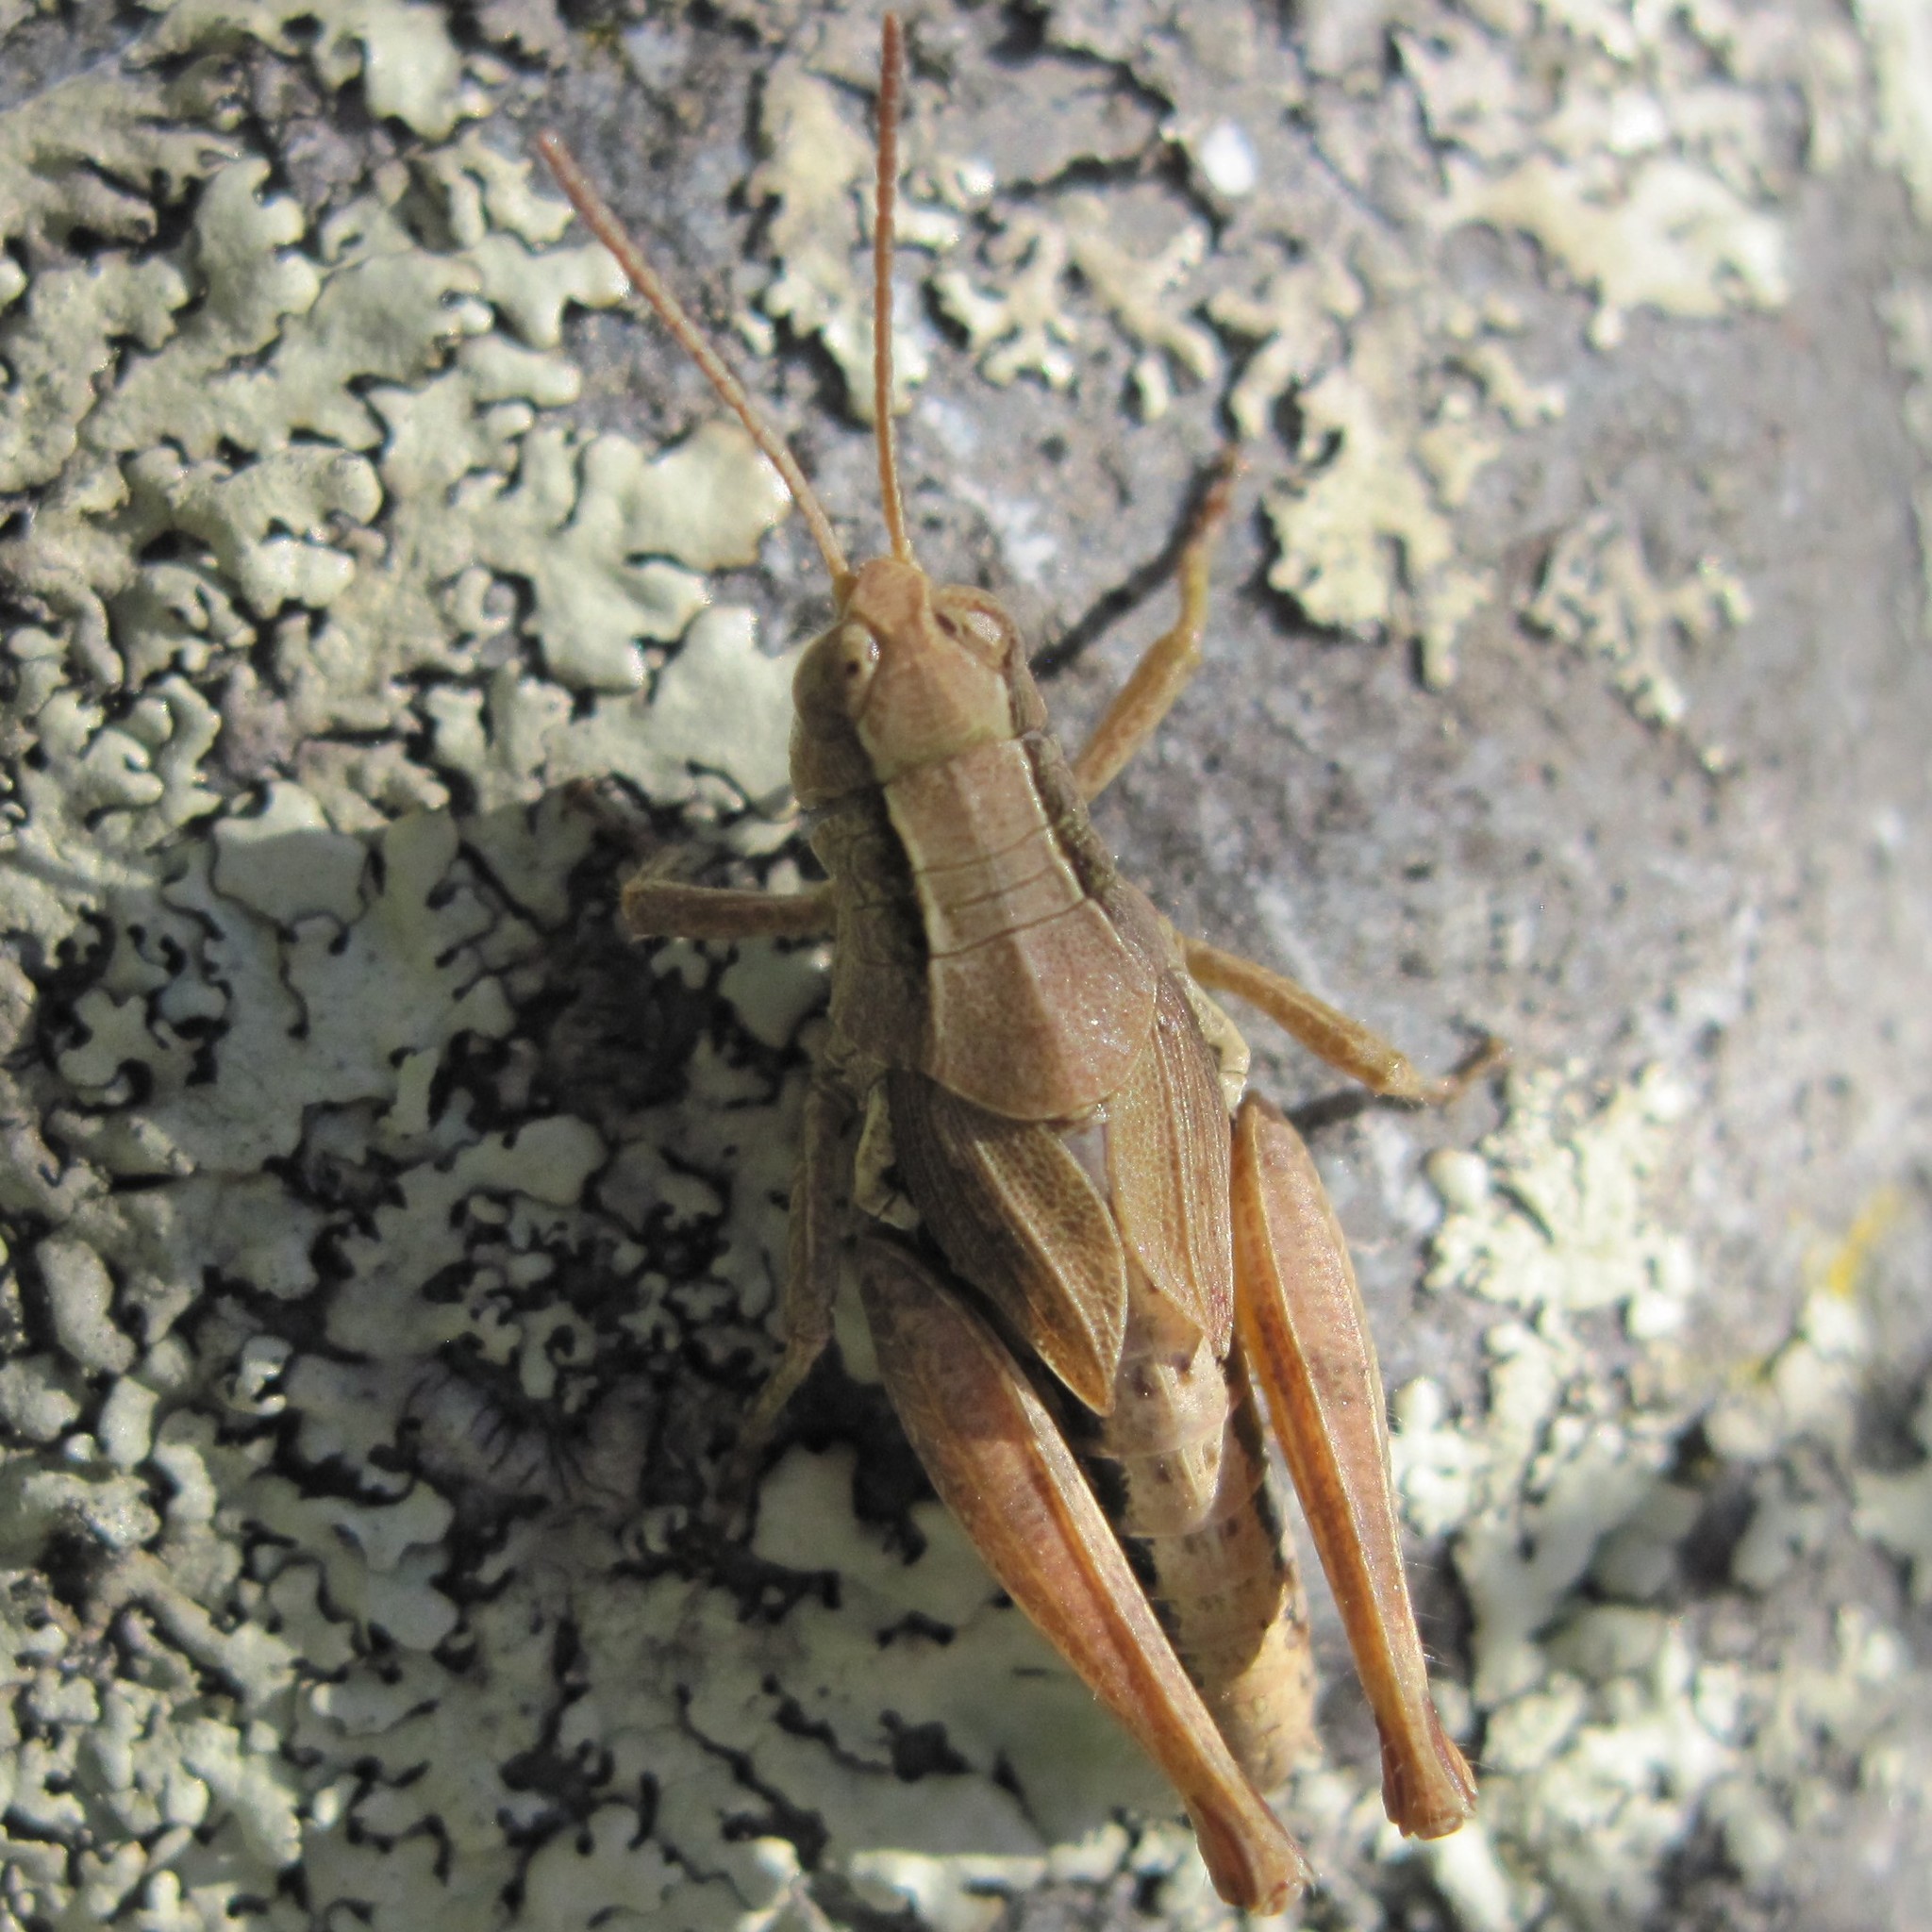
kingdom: Animalia
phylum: Arthropoda
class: Insecta
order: Orthoptera
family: Acrididae
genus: Phaulacridium
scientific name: Phaulacridium marginale
